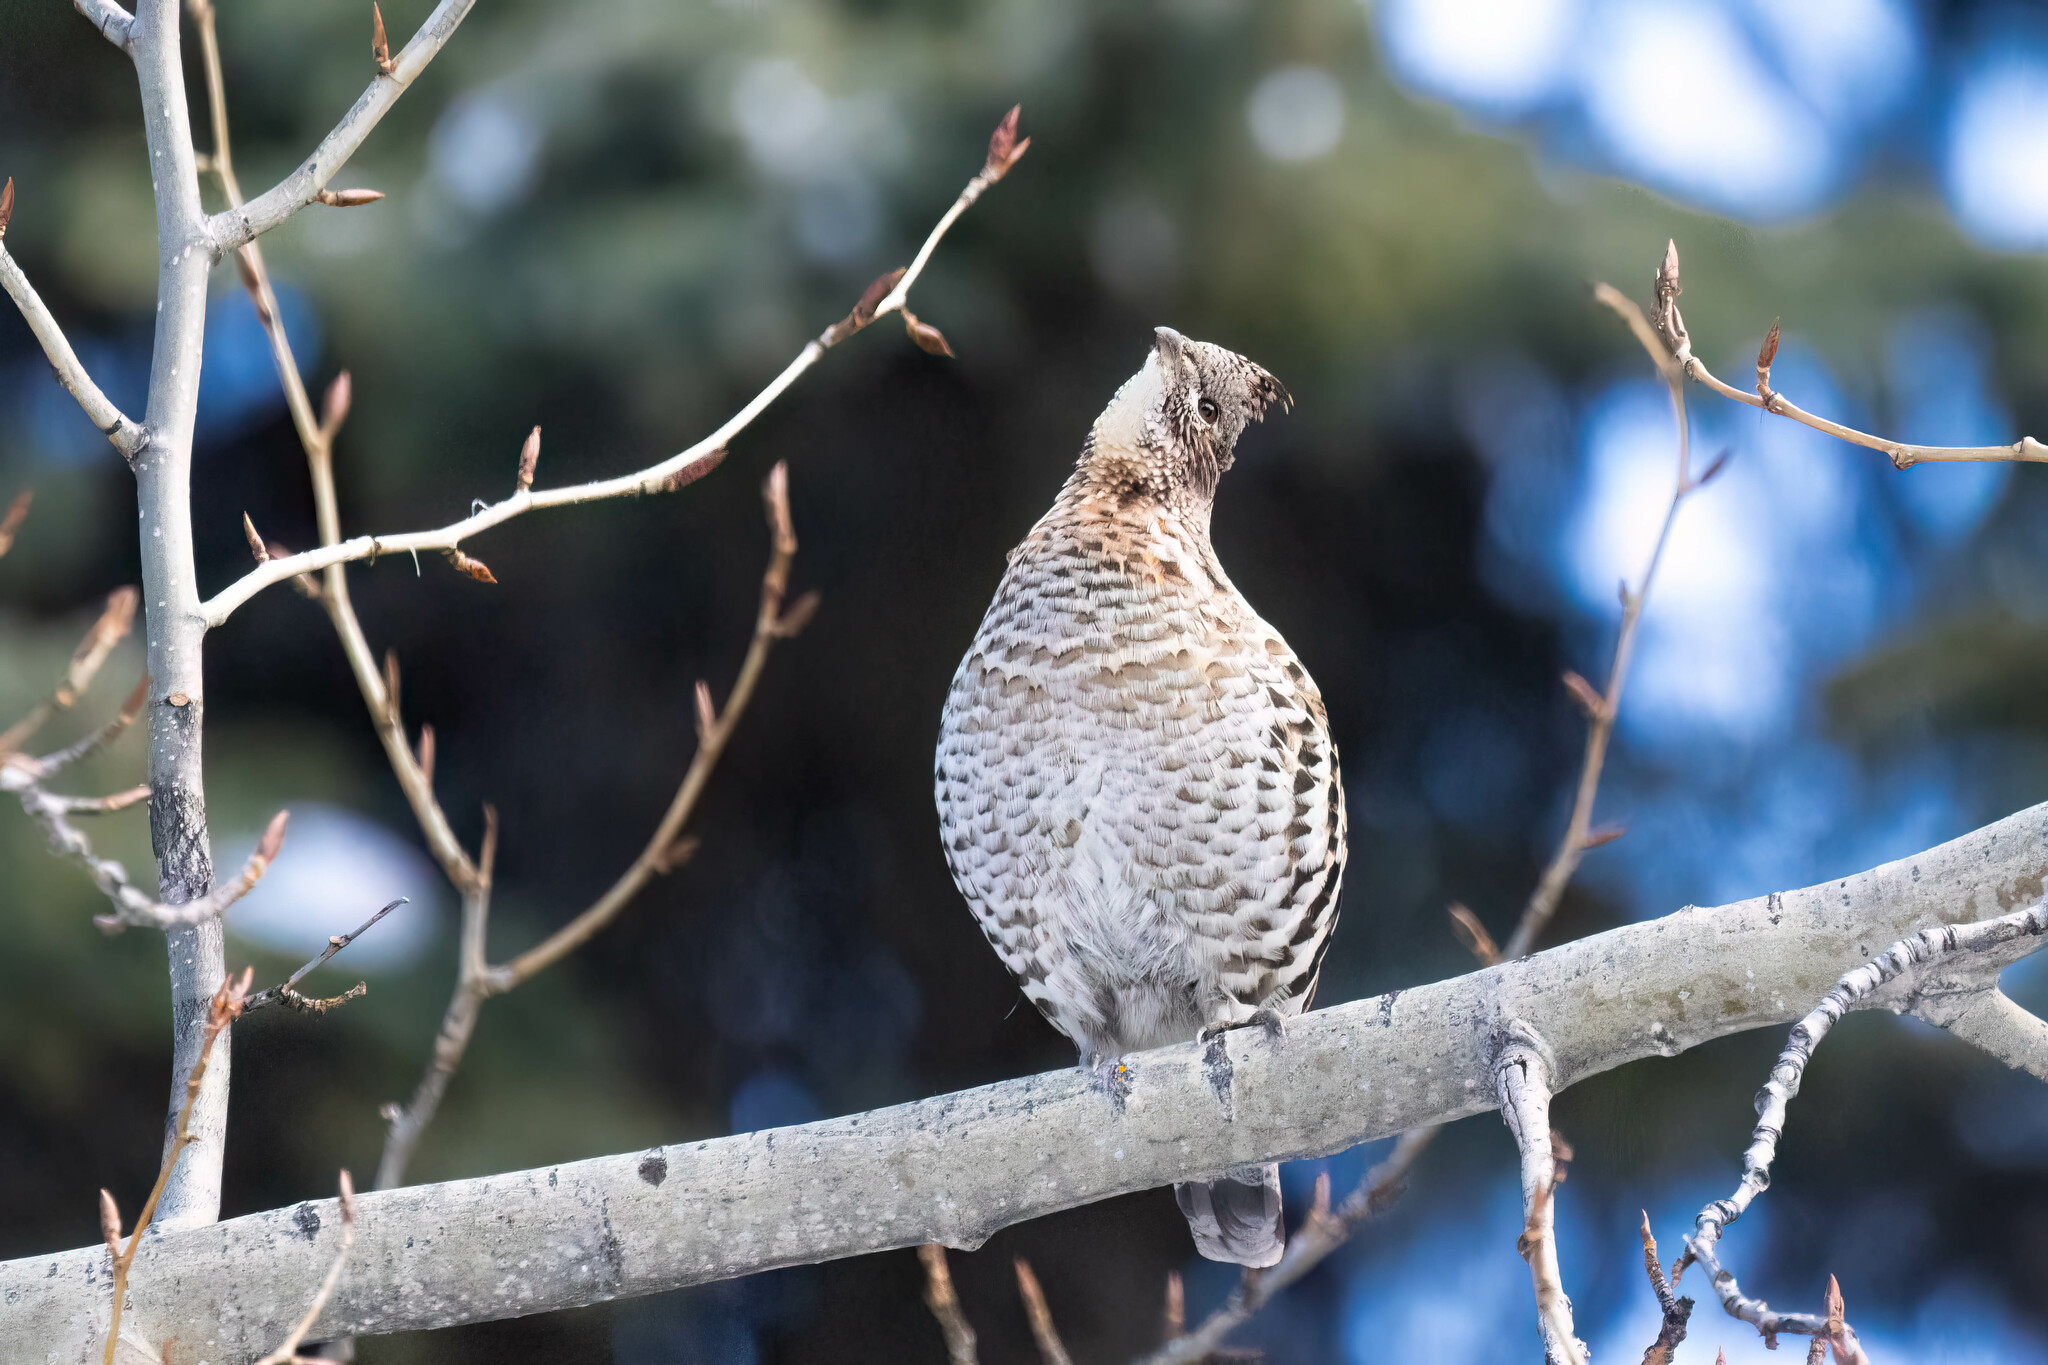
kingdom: Animalia
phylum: Chordata
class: Aves
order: Galliformes
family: Phasianidae
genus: Bonasa
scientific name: Bonasa umbellus
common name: Ruffed grouse
